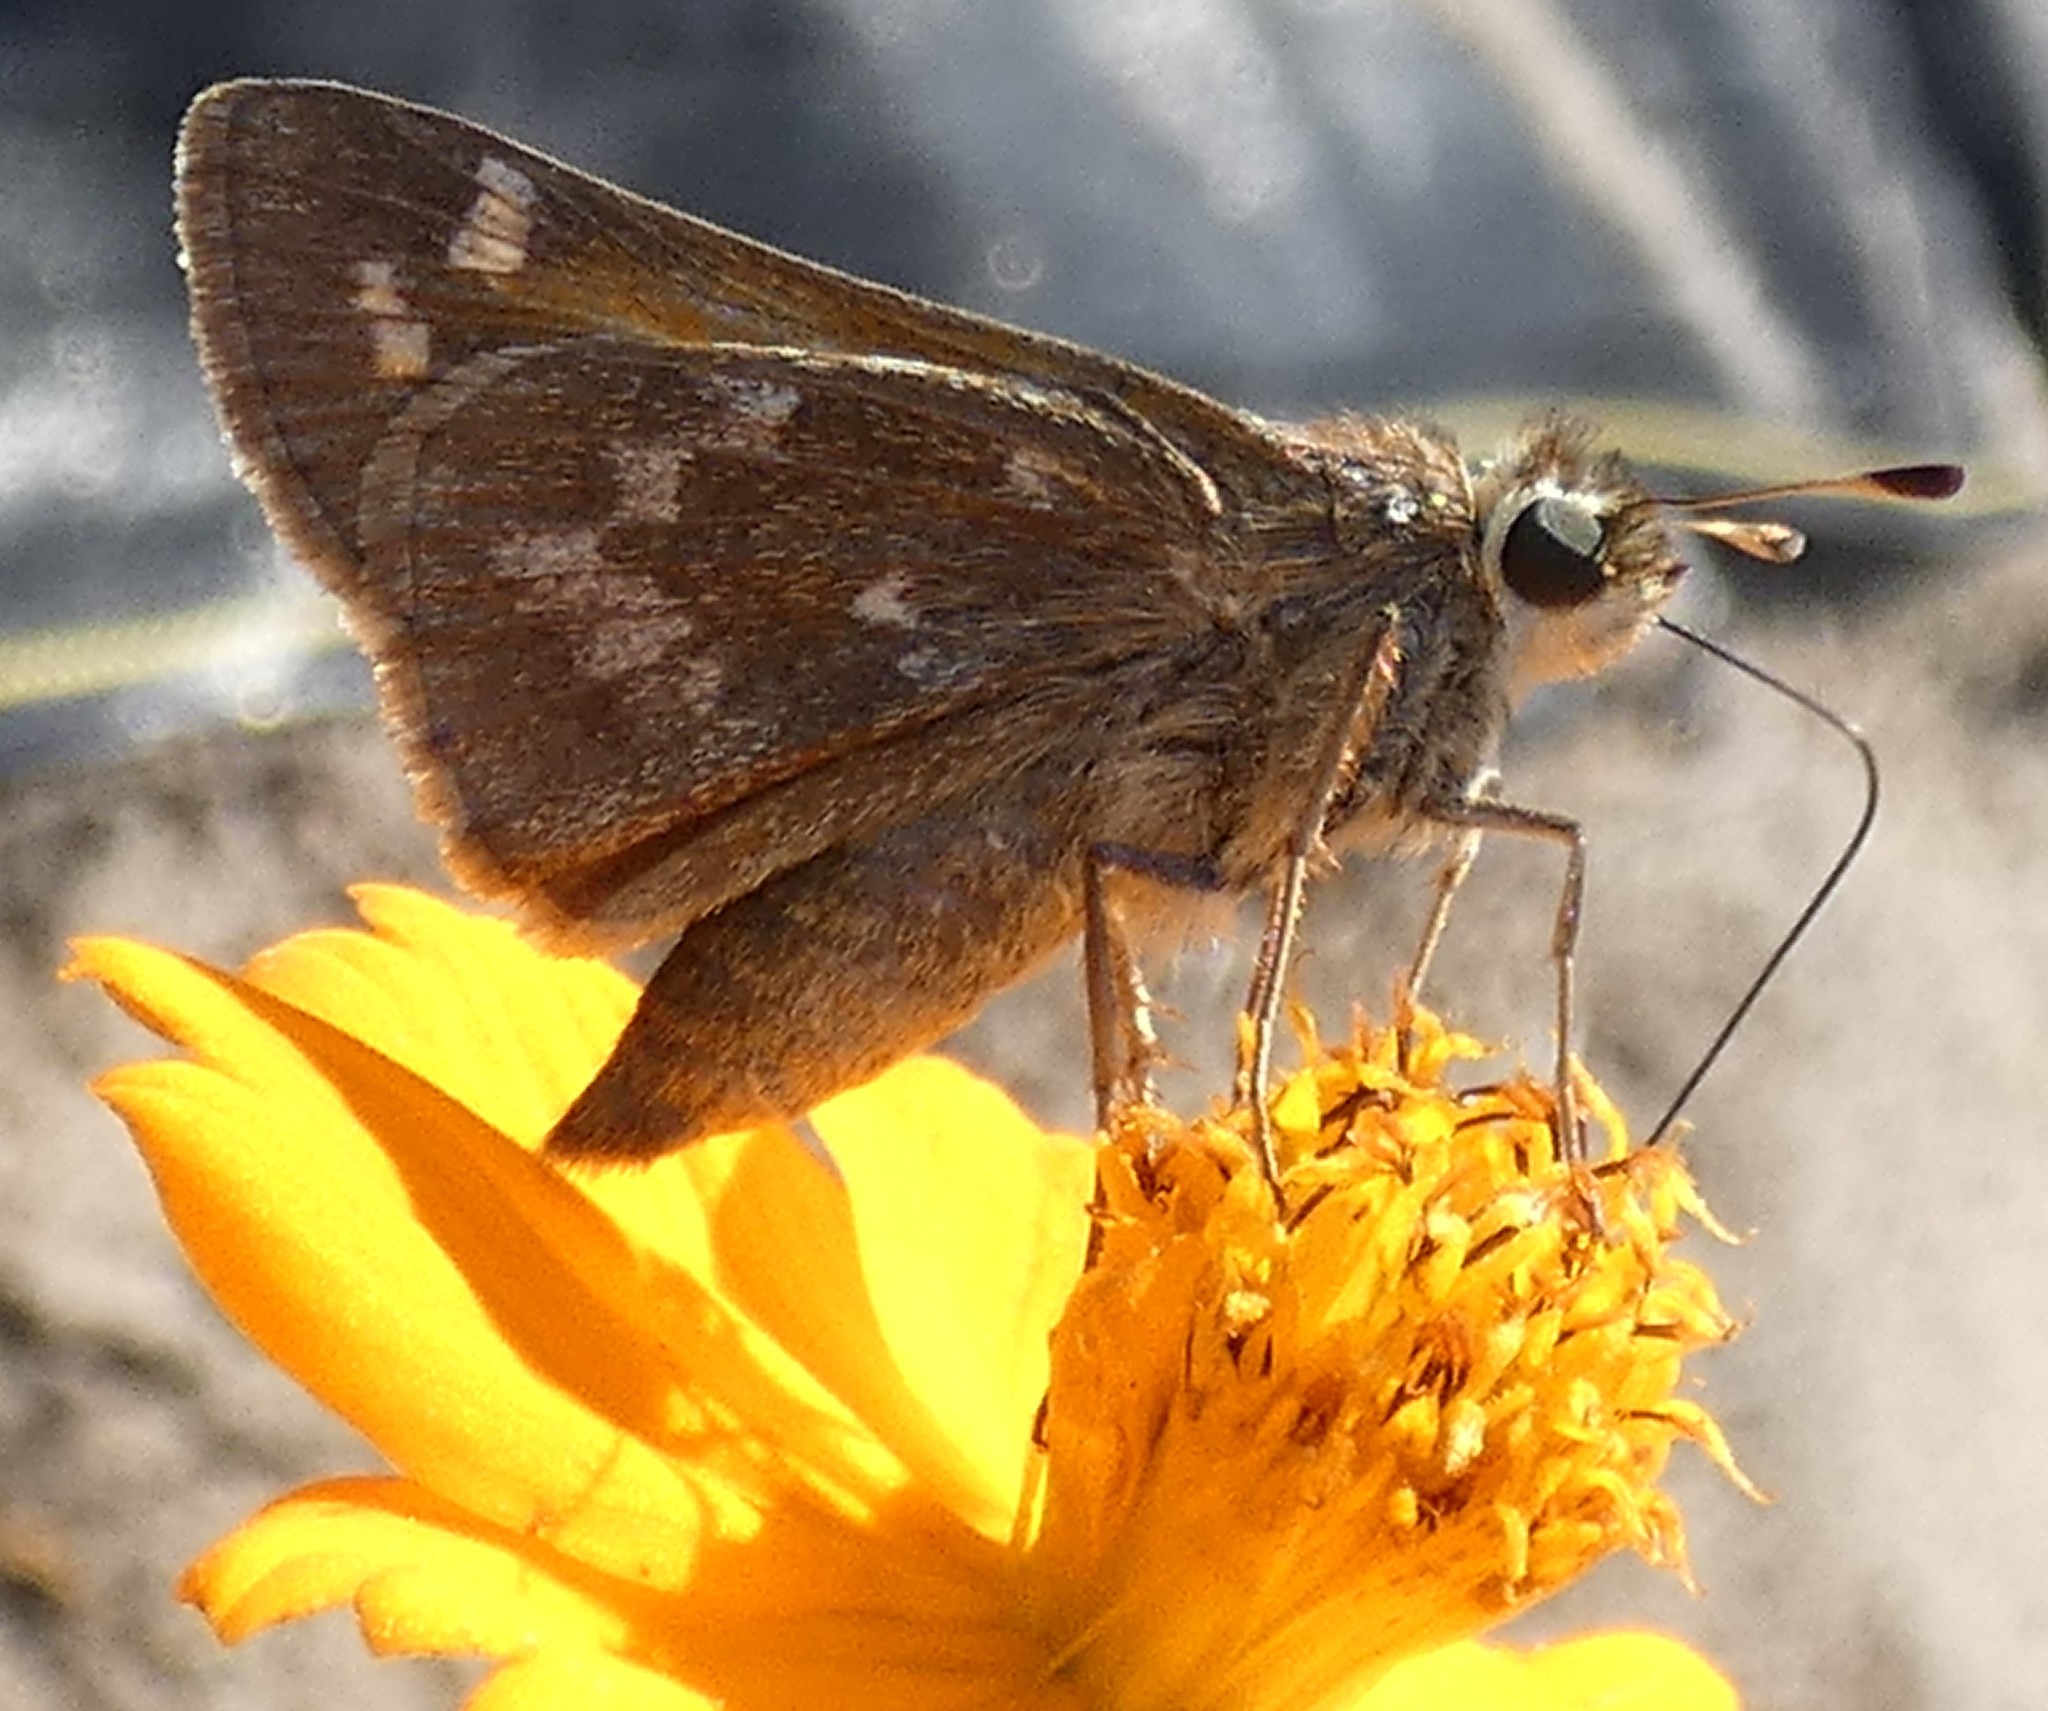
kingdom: Animalia
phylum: Arthropoda
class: Insecta
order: Lepidoptera
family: Hesperiidae
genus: Atalopedes
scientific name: Atalopedes
